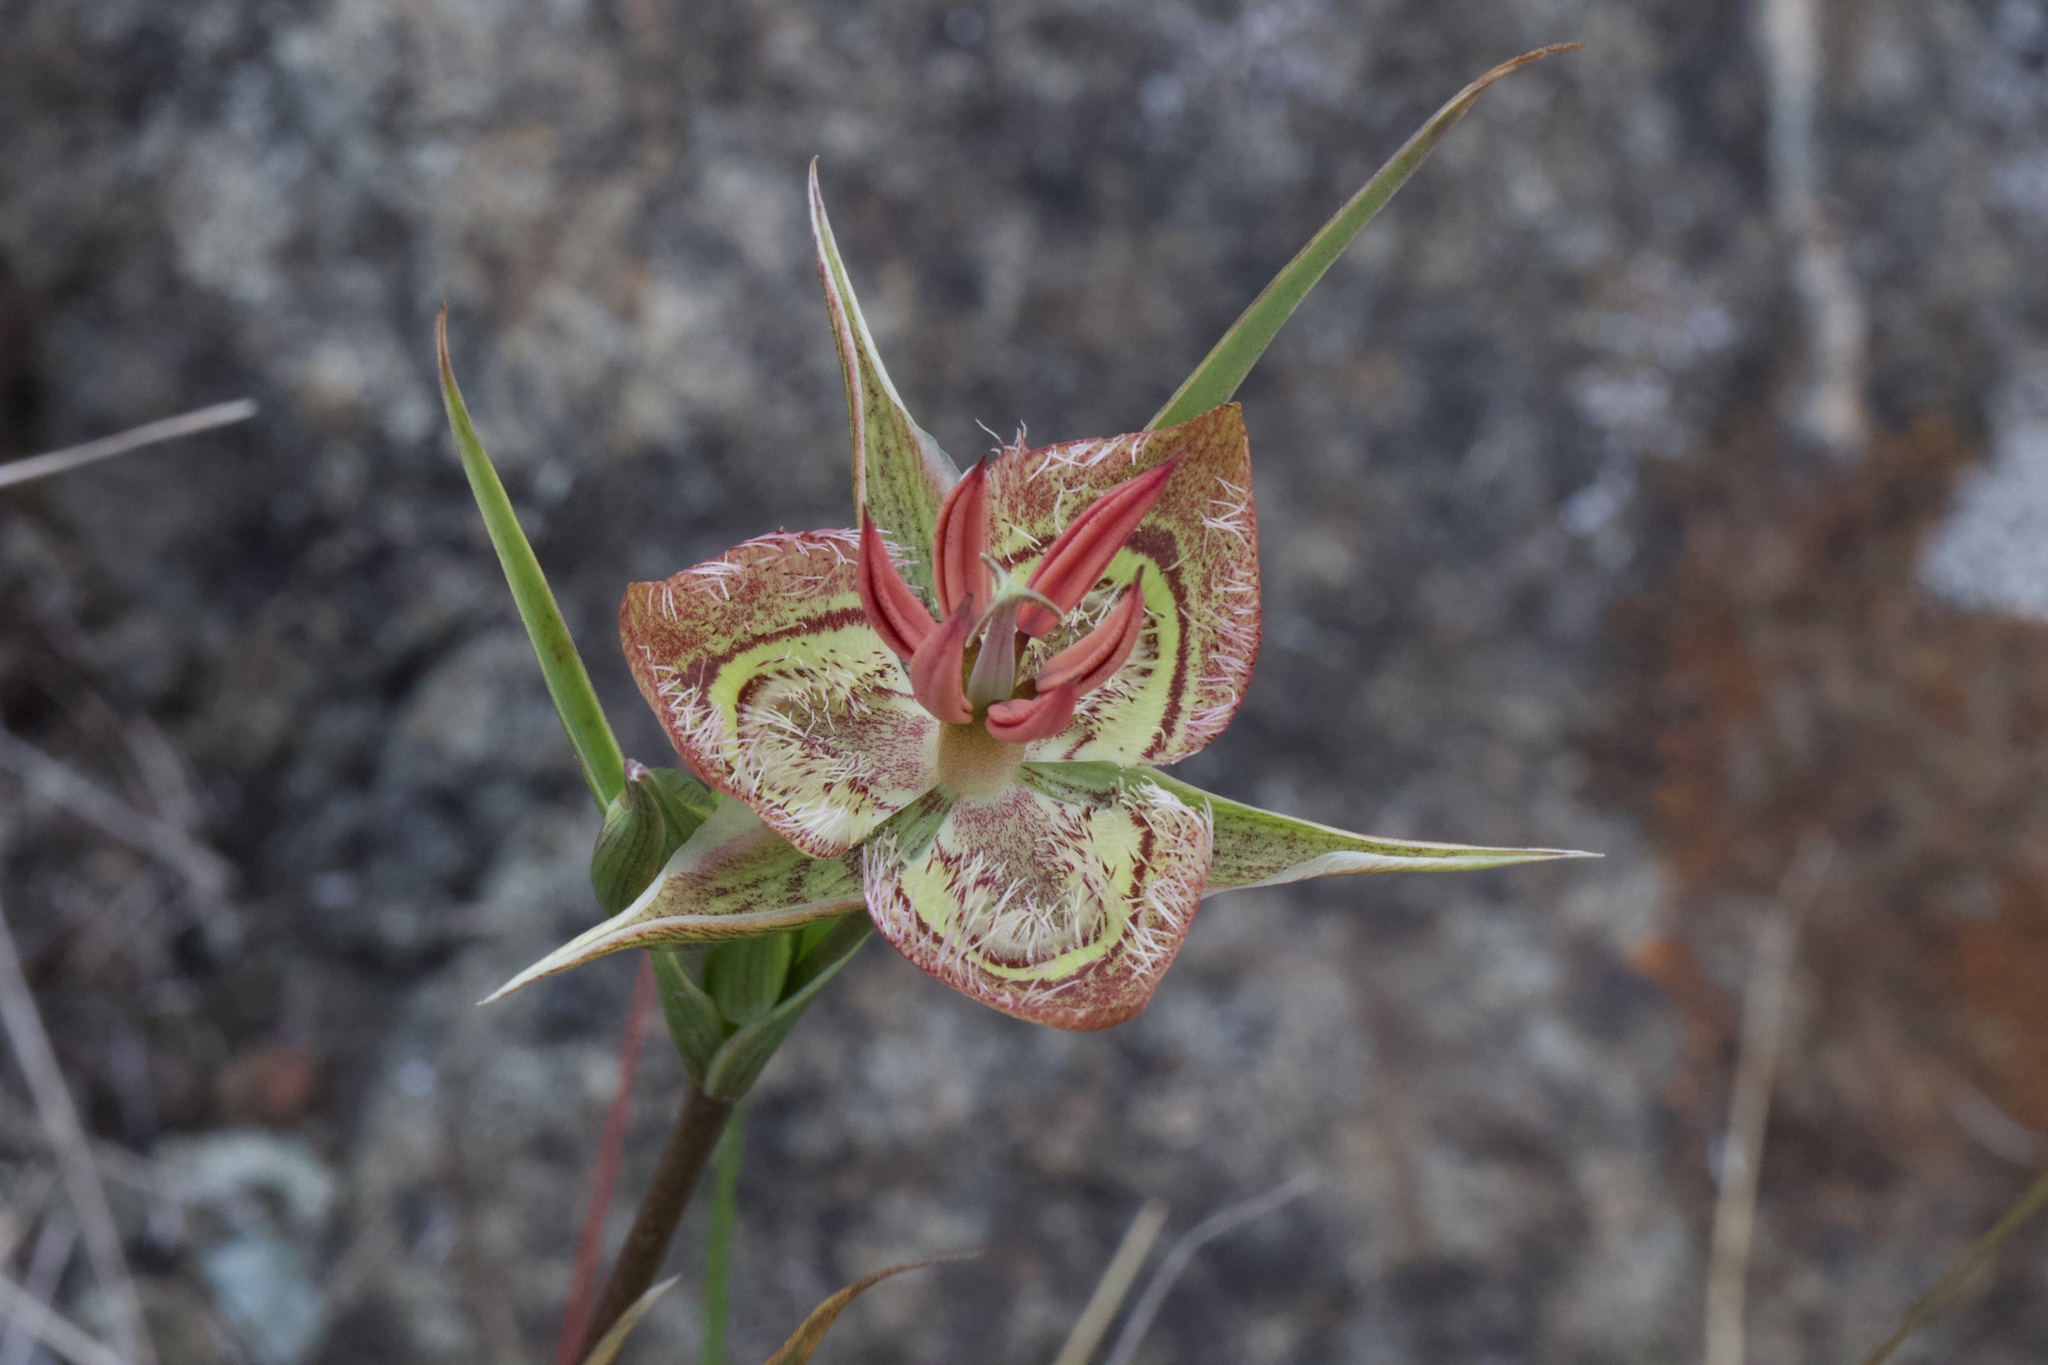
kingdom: Plantae
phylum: Tracheophyta
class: Liliopsida
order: Liliales
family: Liliaceae
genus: Calochortus
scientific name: Calochortus tiburonensis
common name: Tiburon mariposa-lily
